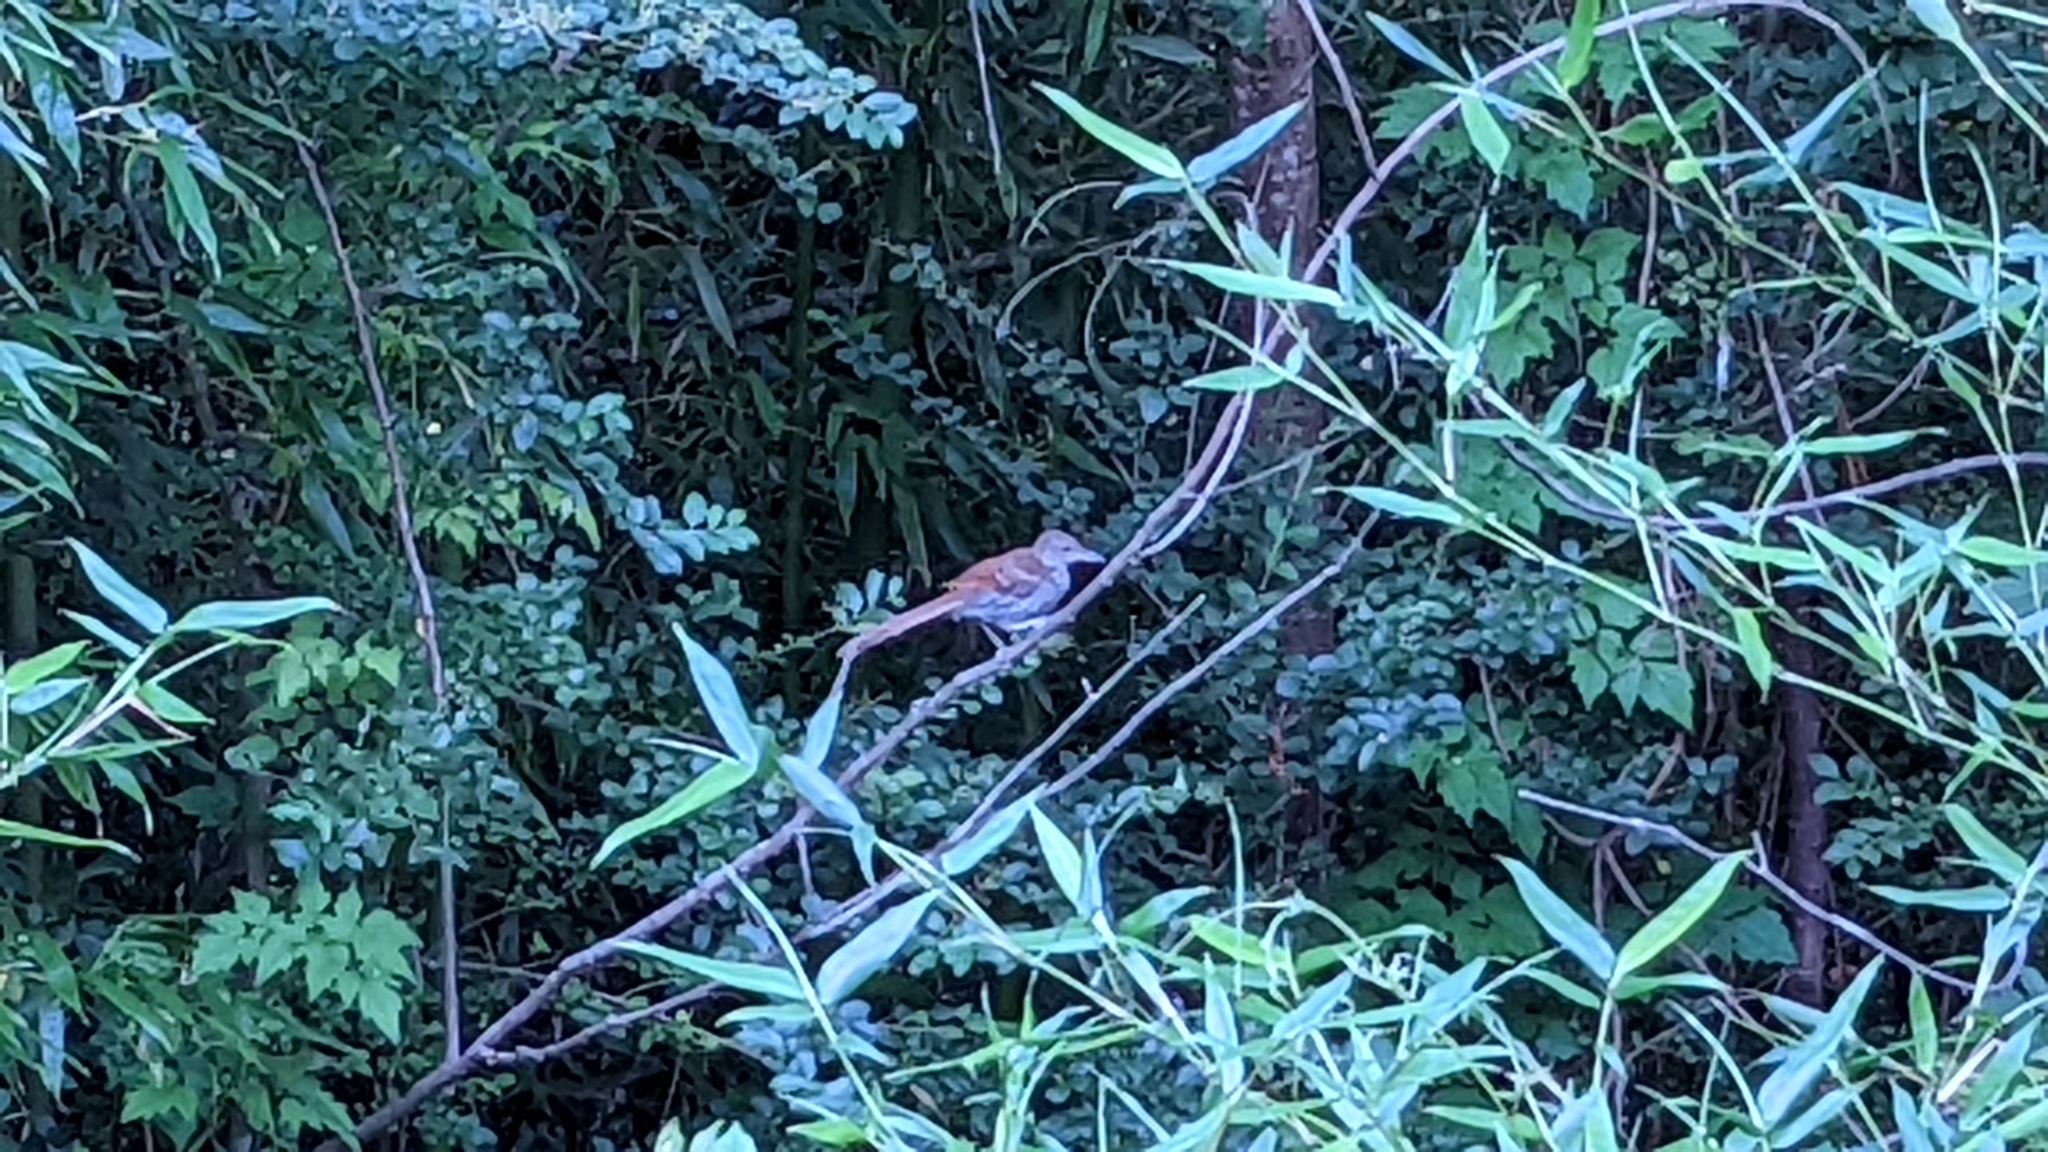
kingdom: Animalia
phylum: Chordata
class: Aves
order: Passeriformes
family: Mimidae
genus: Toxostoma
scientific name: Toxostoma rufum
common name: Brown thrasher
